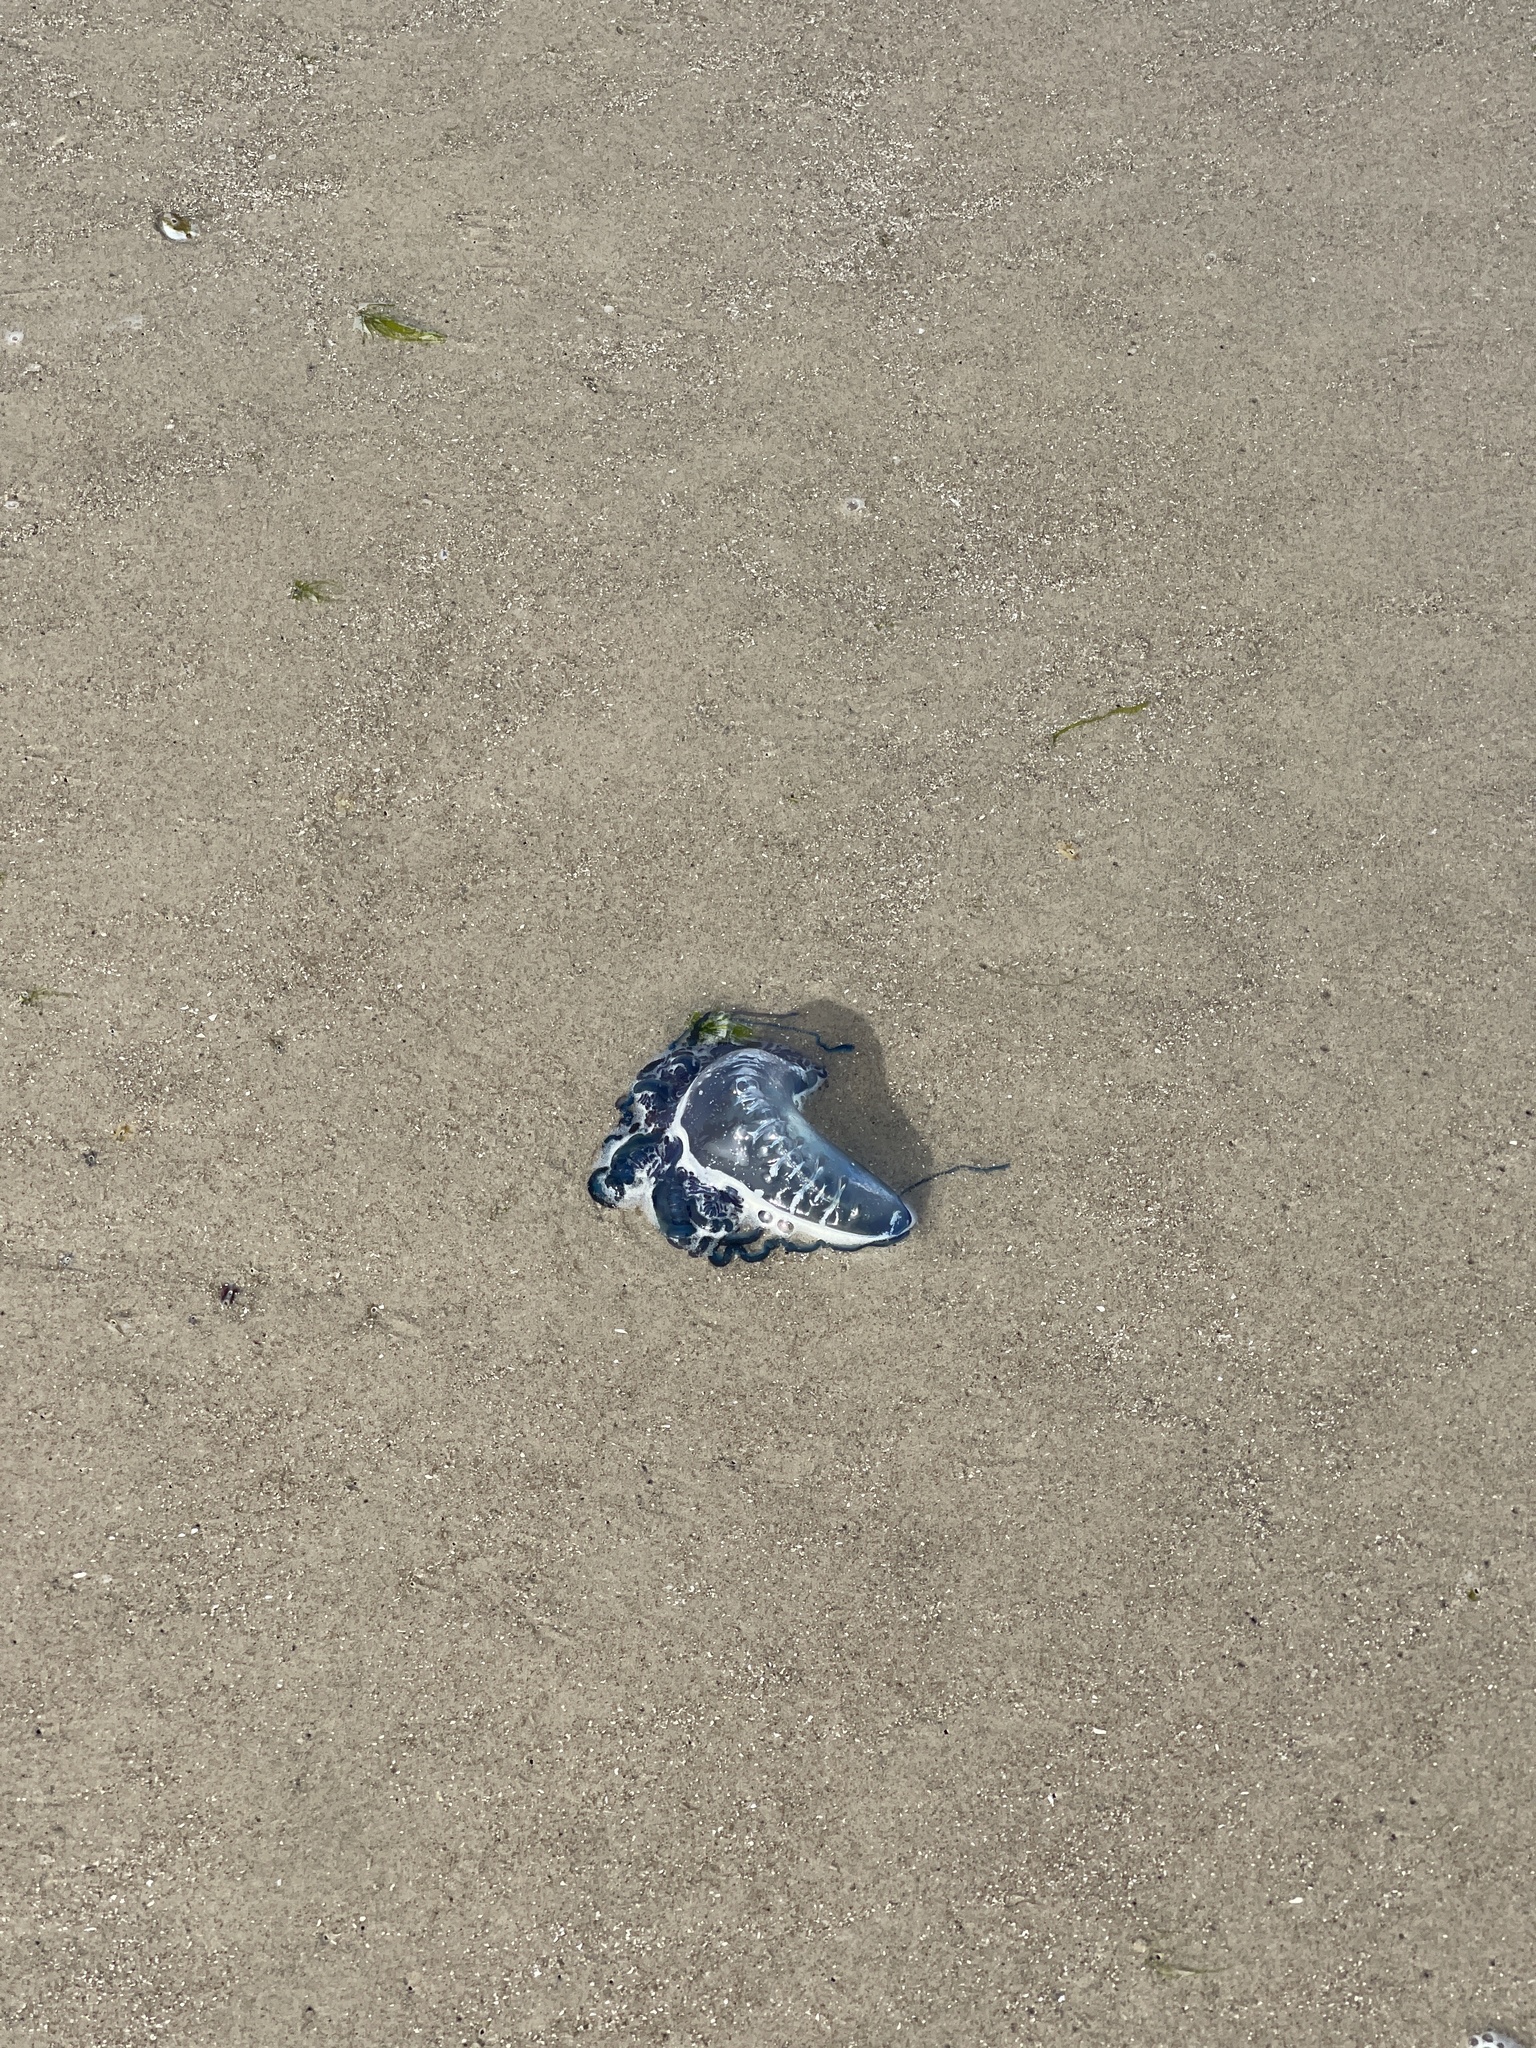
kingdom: Animalia
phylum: Cnidaria
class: Hydrozoa
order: Siphonophorae
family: Physaliidae
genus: Physalia
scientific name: Physalia physalis
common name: Portuguese man-of-war
